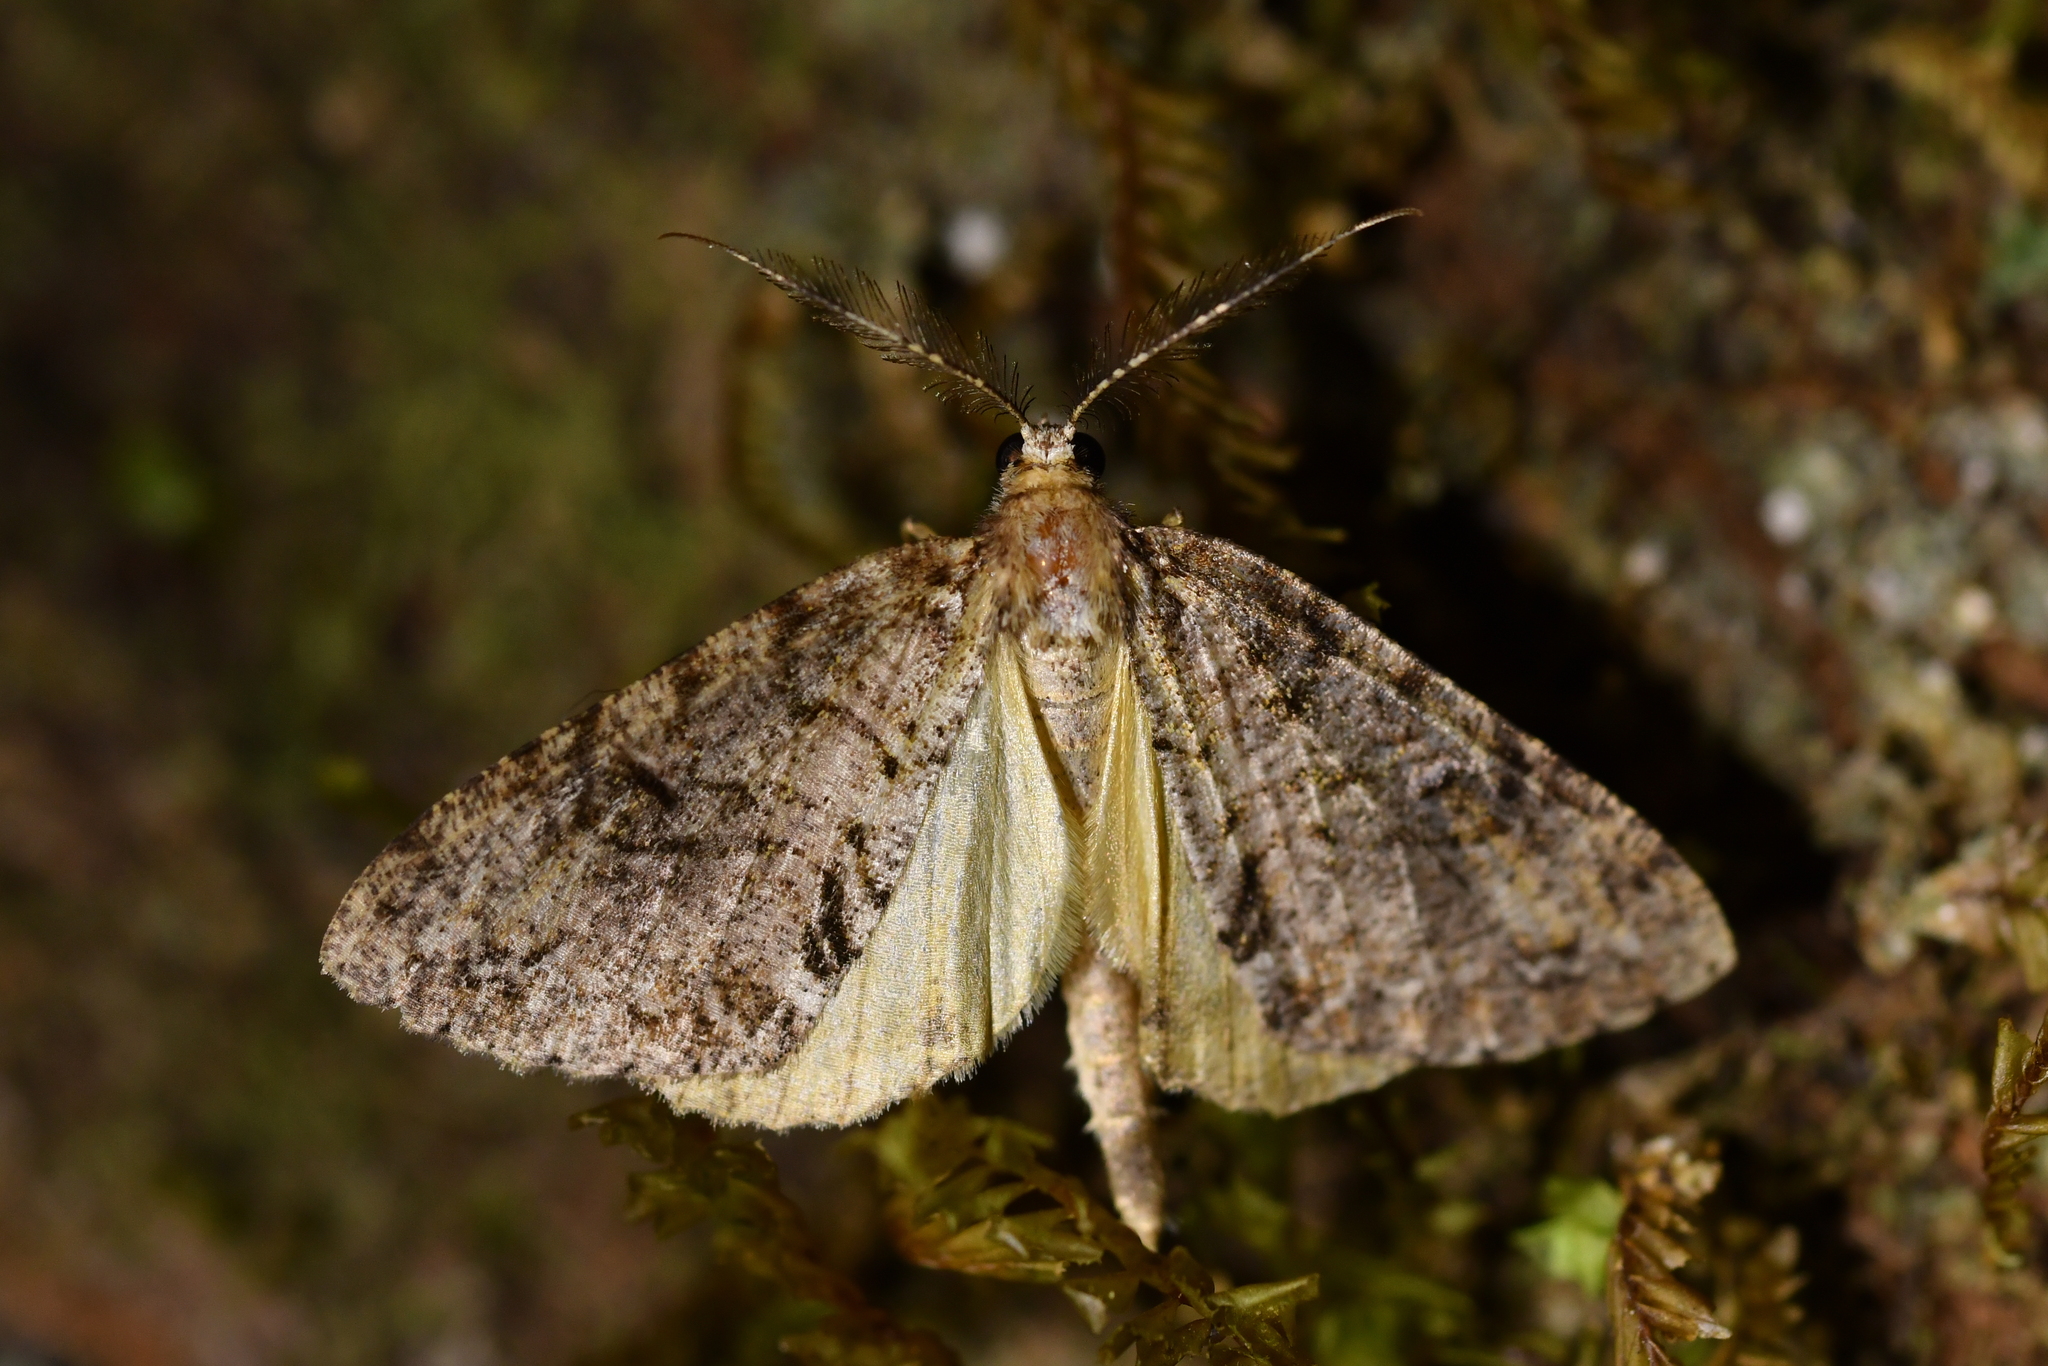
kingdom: Animalia
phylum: Arthropoda
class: Insecta
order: Lepidoptera
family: Geometridae
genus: Pseudocoremia
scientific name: Pseudocoremia suavis
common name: Common forest looper
